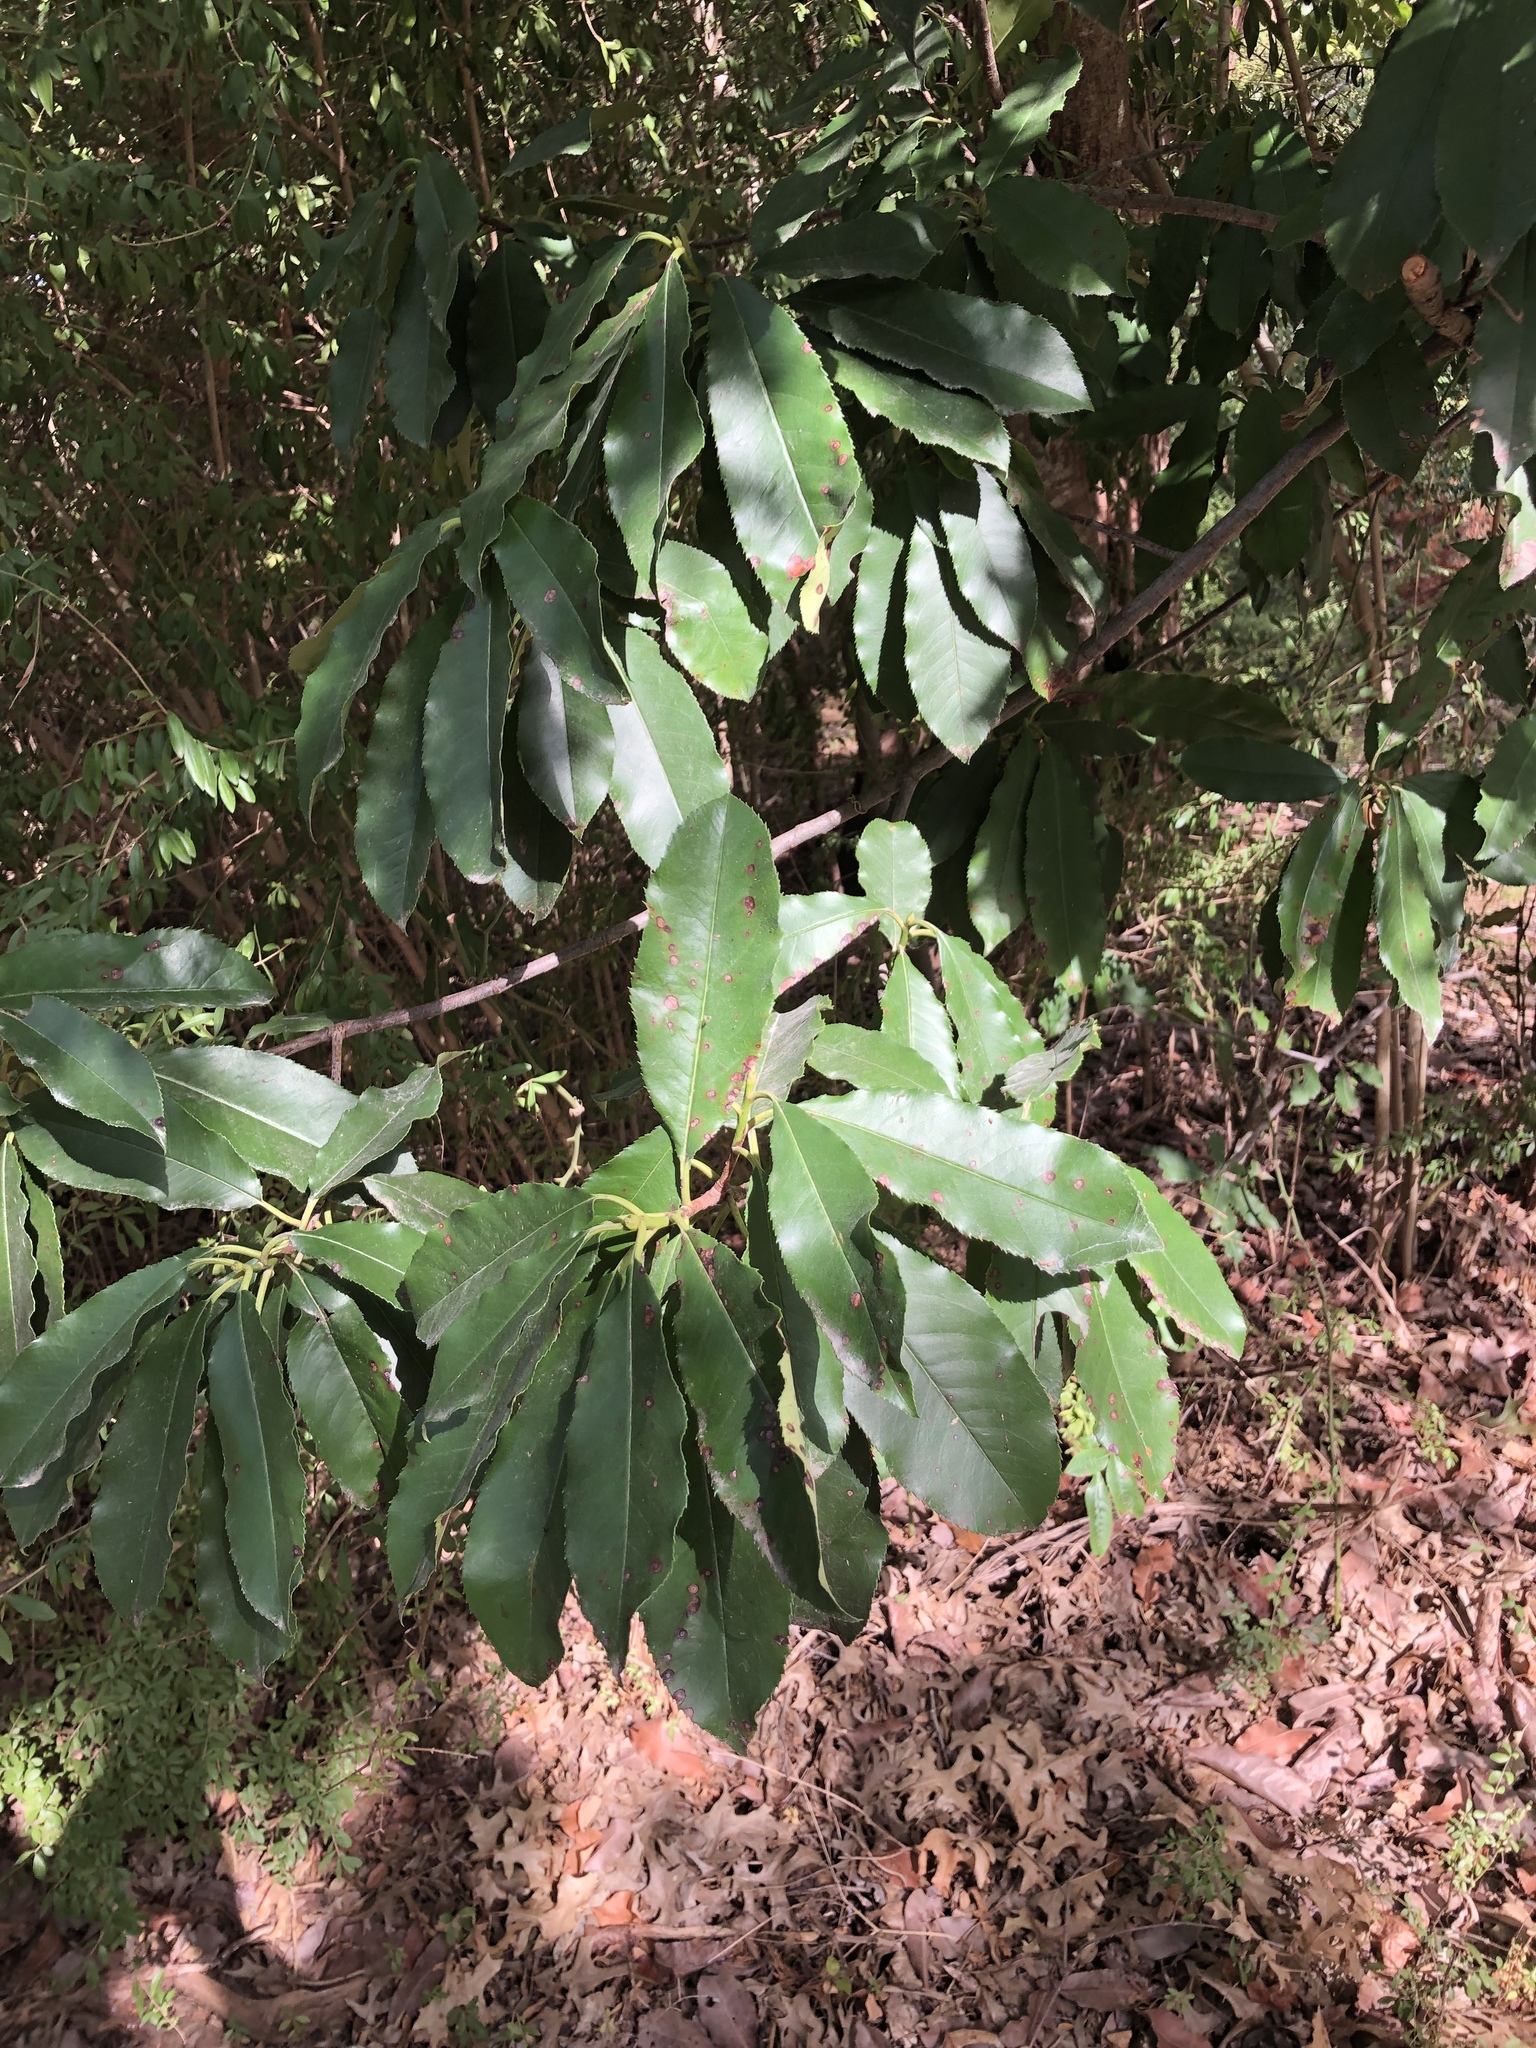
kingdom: Plantae
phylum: Tracheophyta
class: Magnoliopsida
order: Rosales
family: Rosaceae
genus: Photinia
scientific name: Photinia serratifolia
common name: Taiwanese photinia
